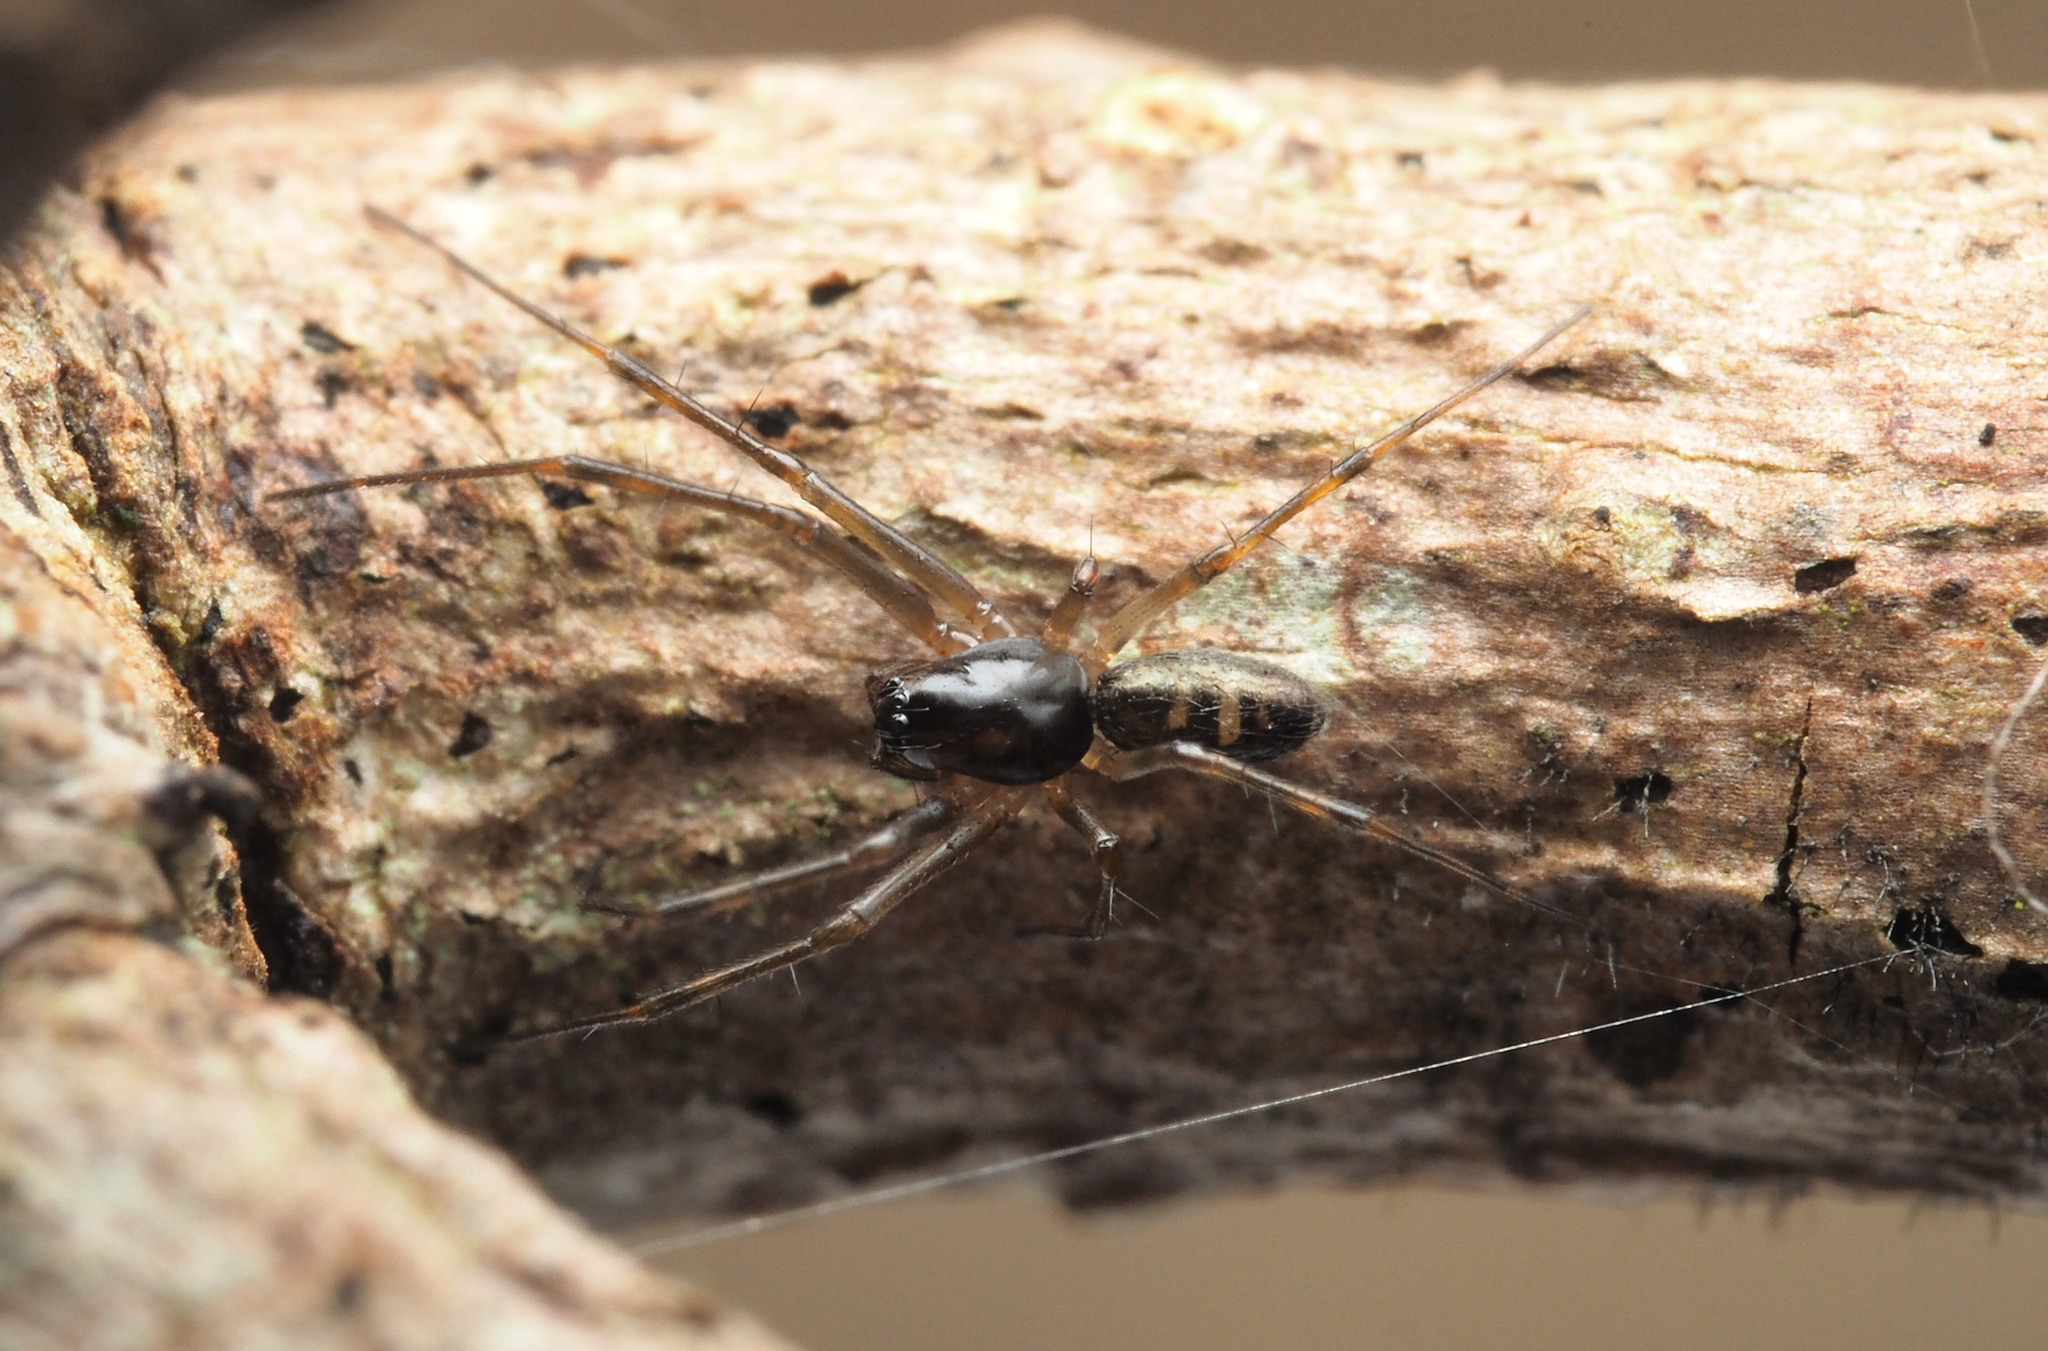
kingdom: Animalia
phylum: Arthropoda
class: Arachnida
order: Araneae
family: Linyphiidae
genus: Palaeohyphantes
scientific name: Palaeohyphantes simplicipalpis
